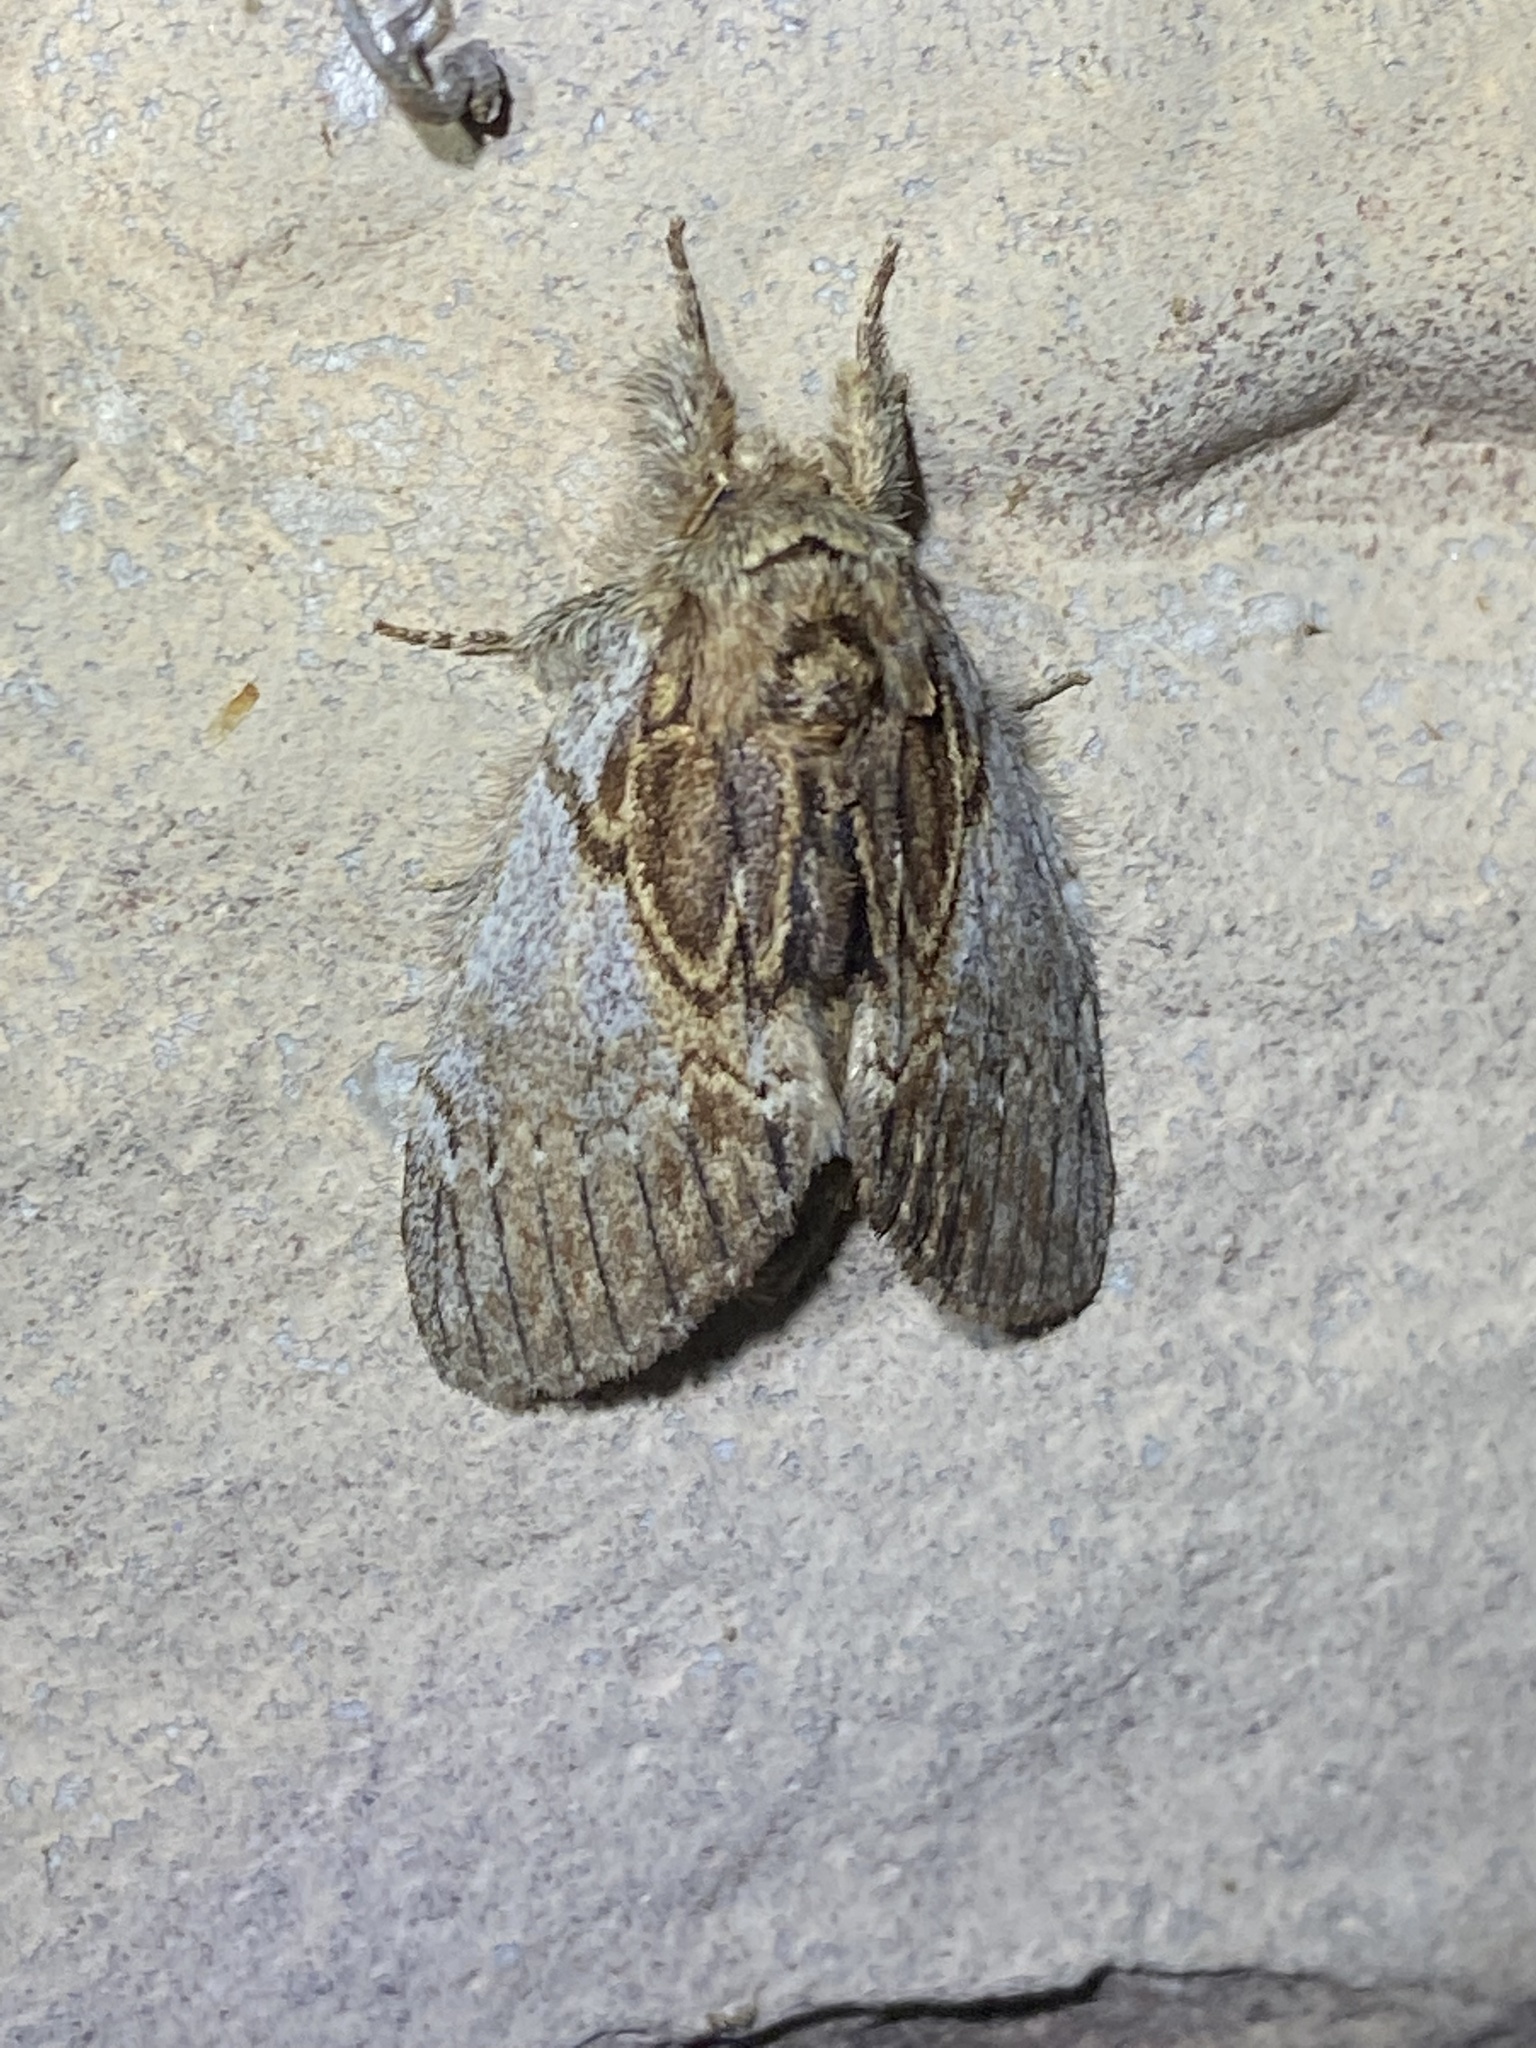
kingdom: Animalia
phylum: Arthropoda
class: Insecta
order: Lepidoptera
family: Notodontidae
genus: Peridea
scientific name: Peridea basitriens
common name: Oval-based prominent
